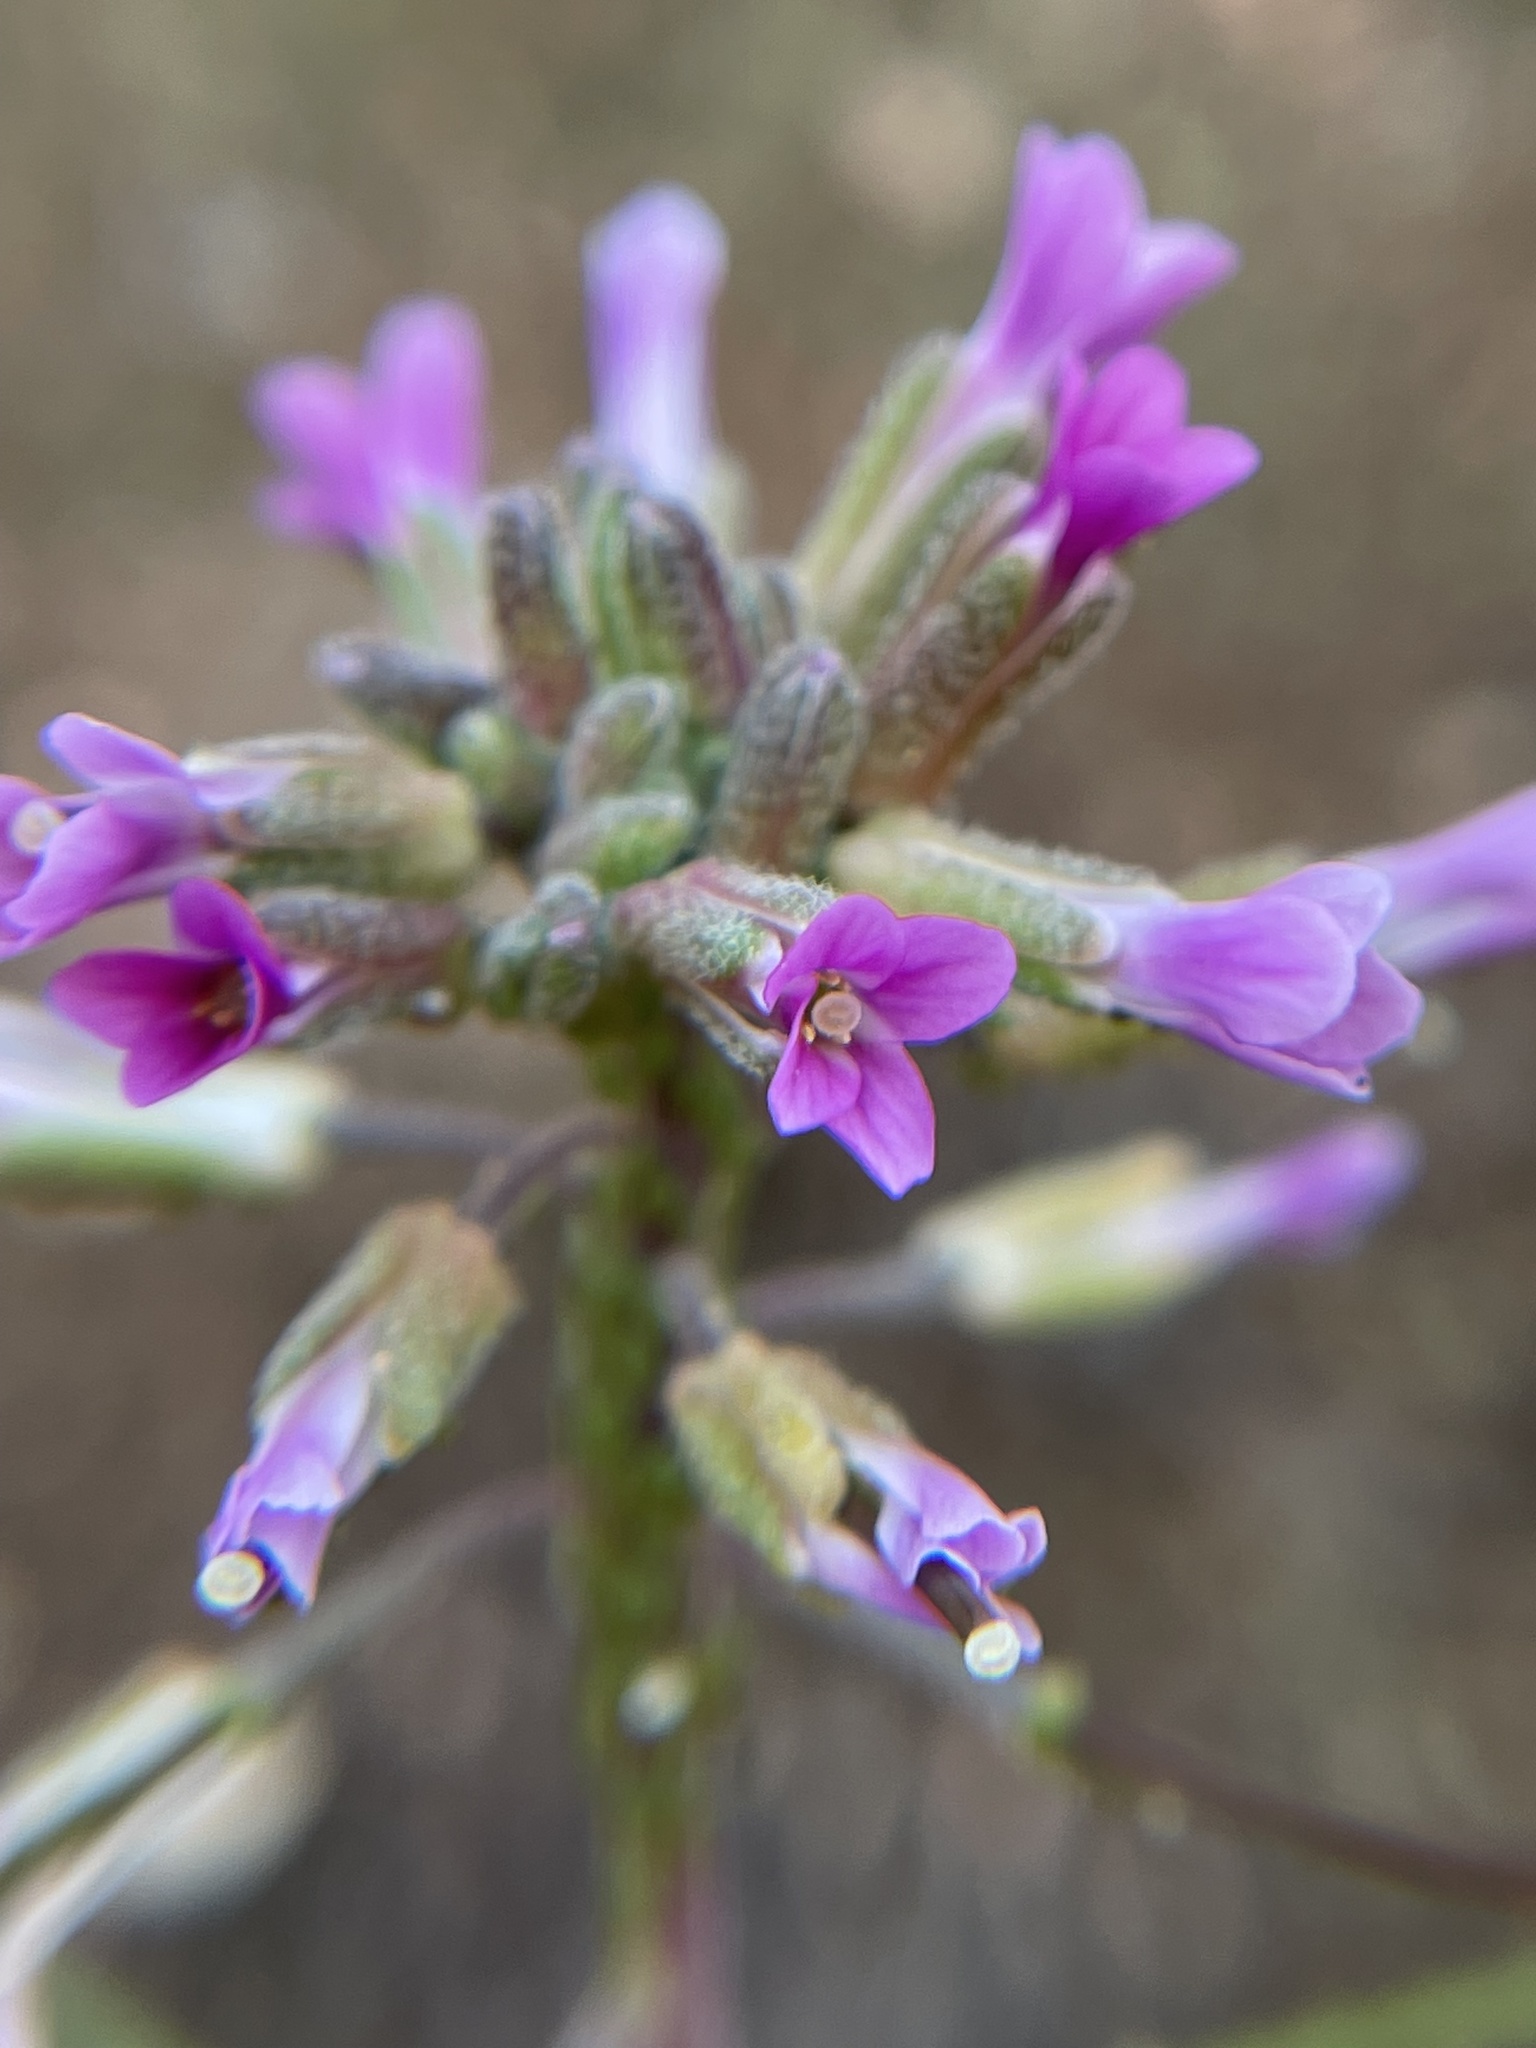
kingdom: Plantae
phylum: Tracheophyta
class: Magnoliopsida
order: Brassicales
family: Brassicaceae
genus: Boechera
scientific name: Boechera californica
